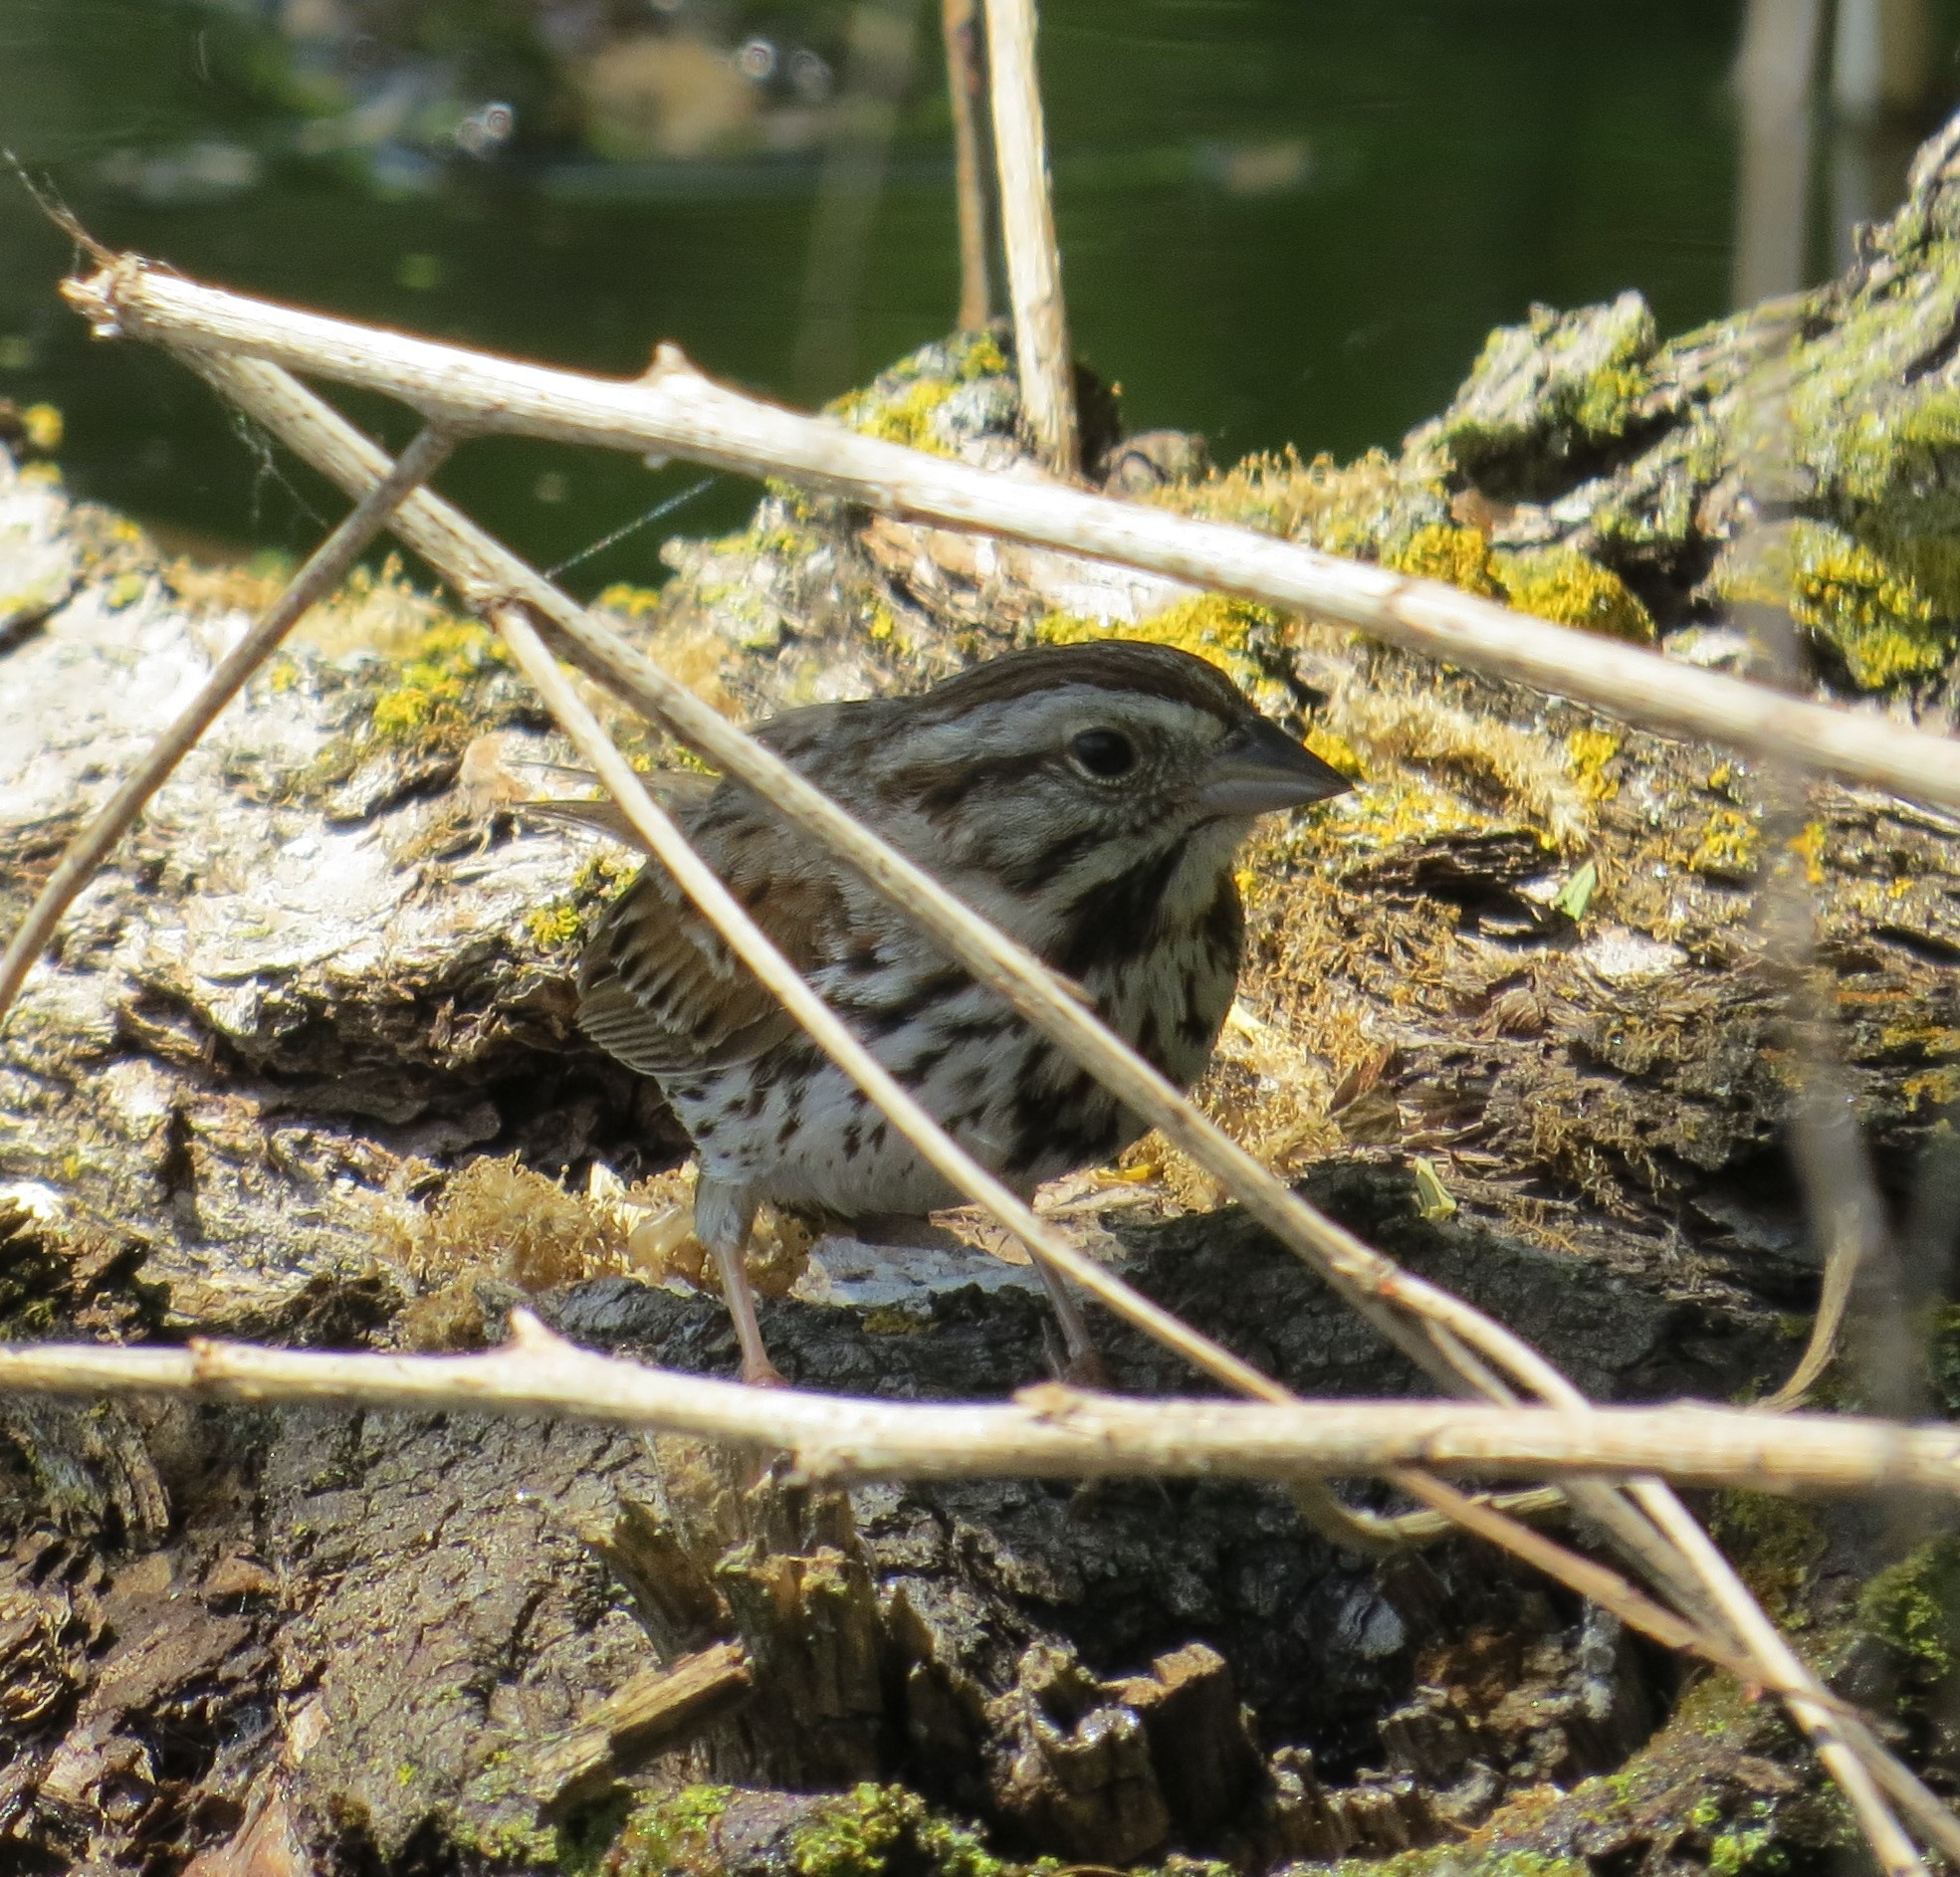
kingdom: Animalia
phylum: Chordata
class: Aves
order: Passeriformes
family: Passerellidae
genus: Melospiza
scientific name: Melospiza melodia
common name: Song sparrow
